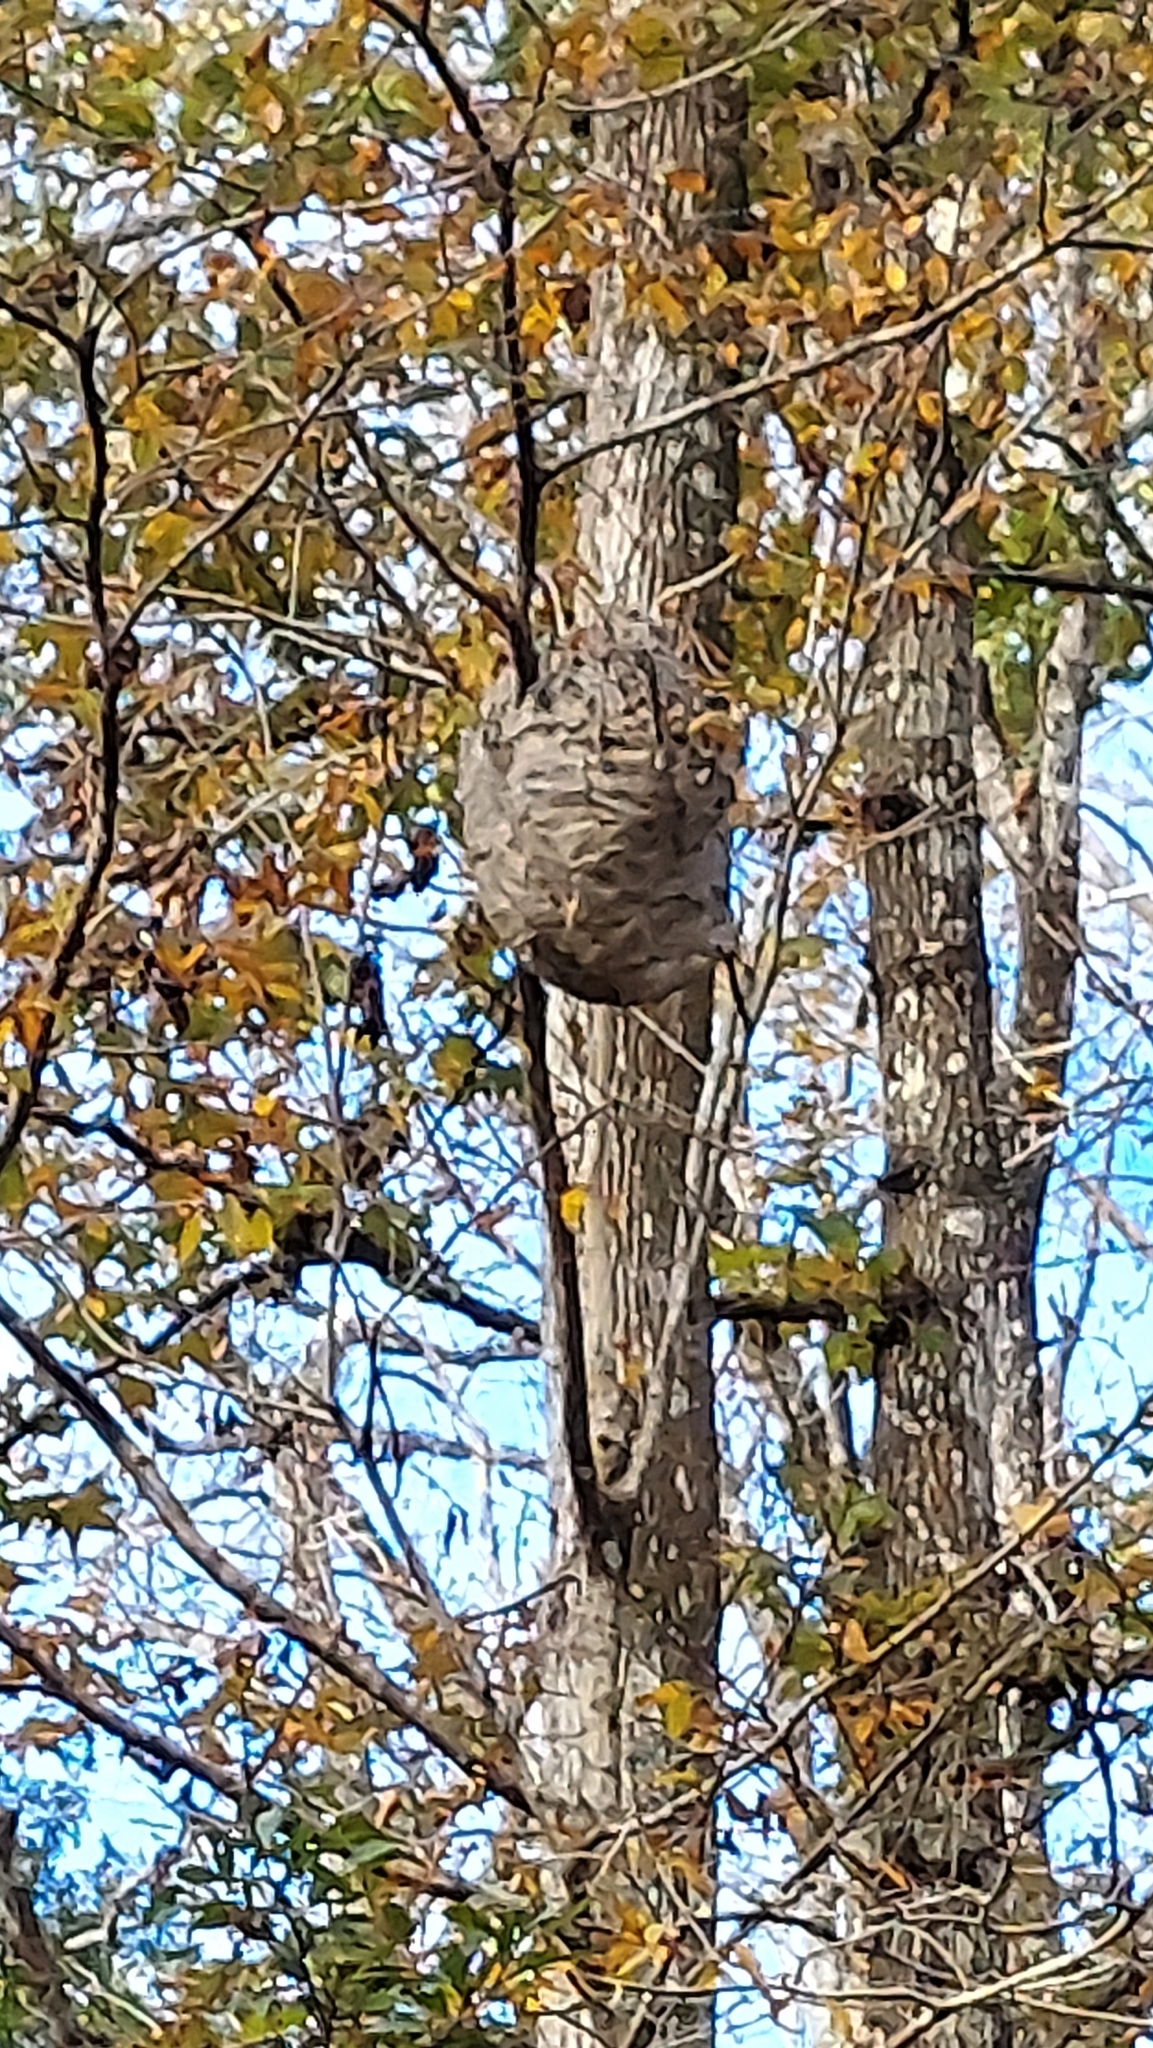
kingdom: Animalia
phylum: Arthropoda
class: Insecta
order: Hymenoptera
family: Vespidae
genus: Dolichovespula
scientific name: Dolichovespula maculata
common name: Bald-faced hornet
